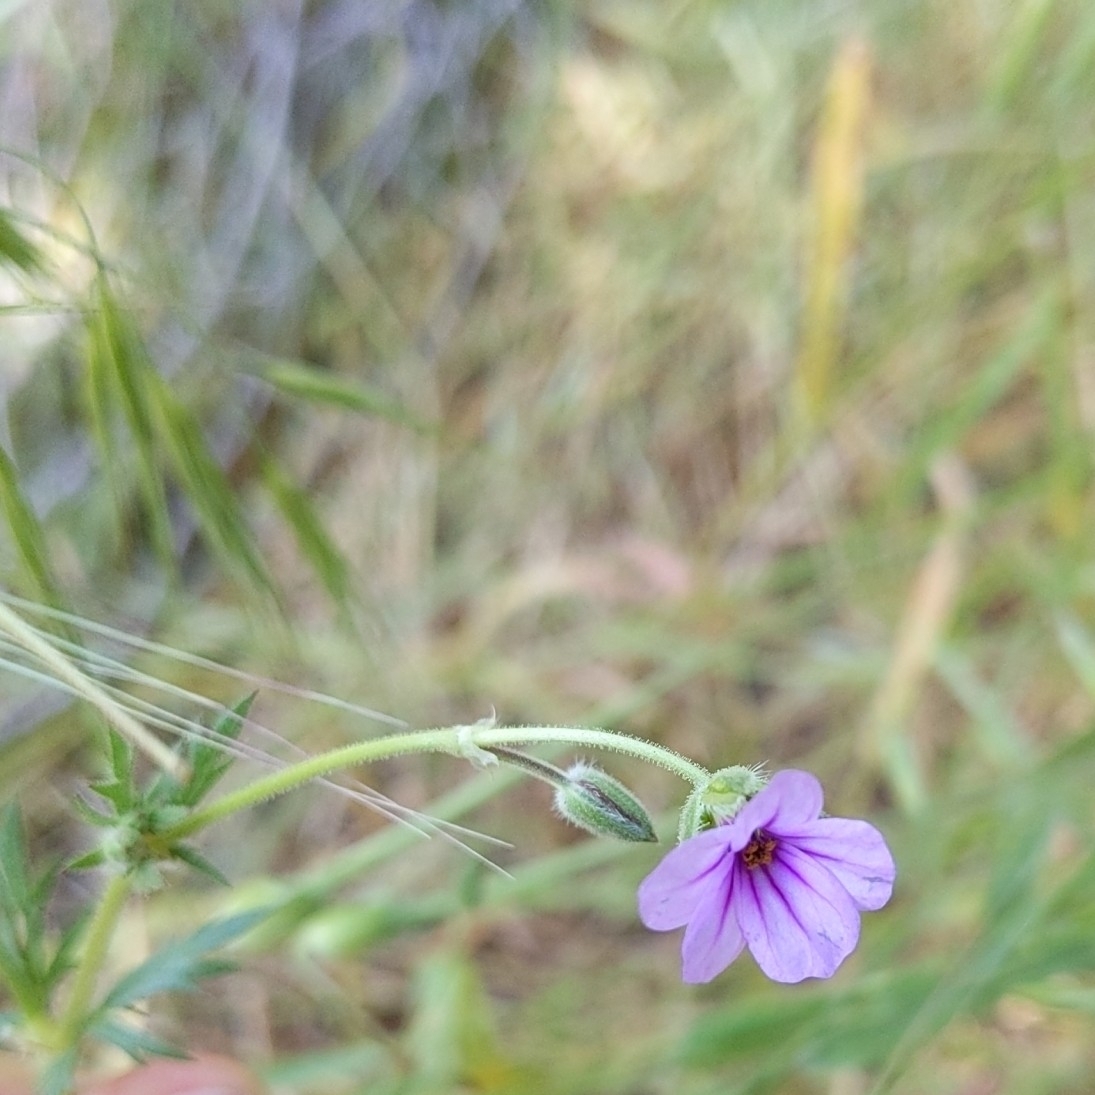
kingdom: Plantae
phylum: Tracheophyta
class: Magnoliopsida
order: Geraniales
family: Geraniaceae
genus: Erodium
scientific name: Erodium botrys
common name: Mediterranean stork's-bill
